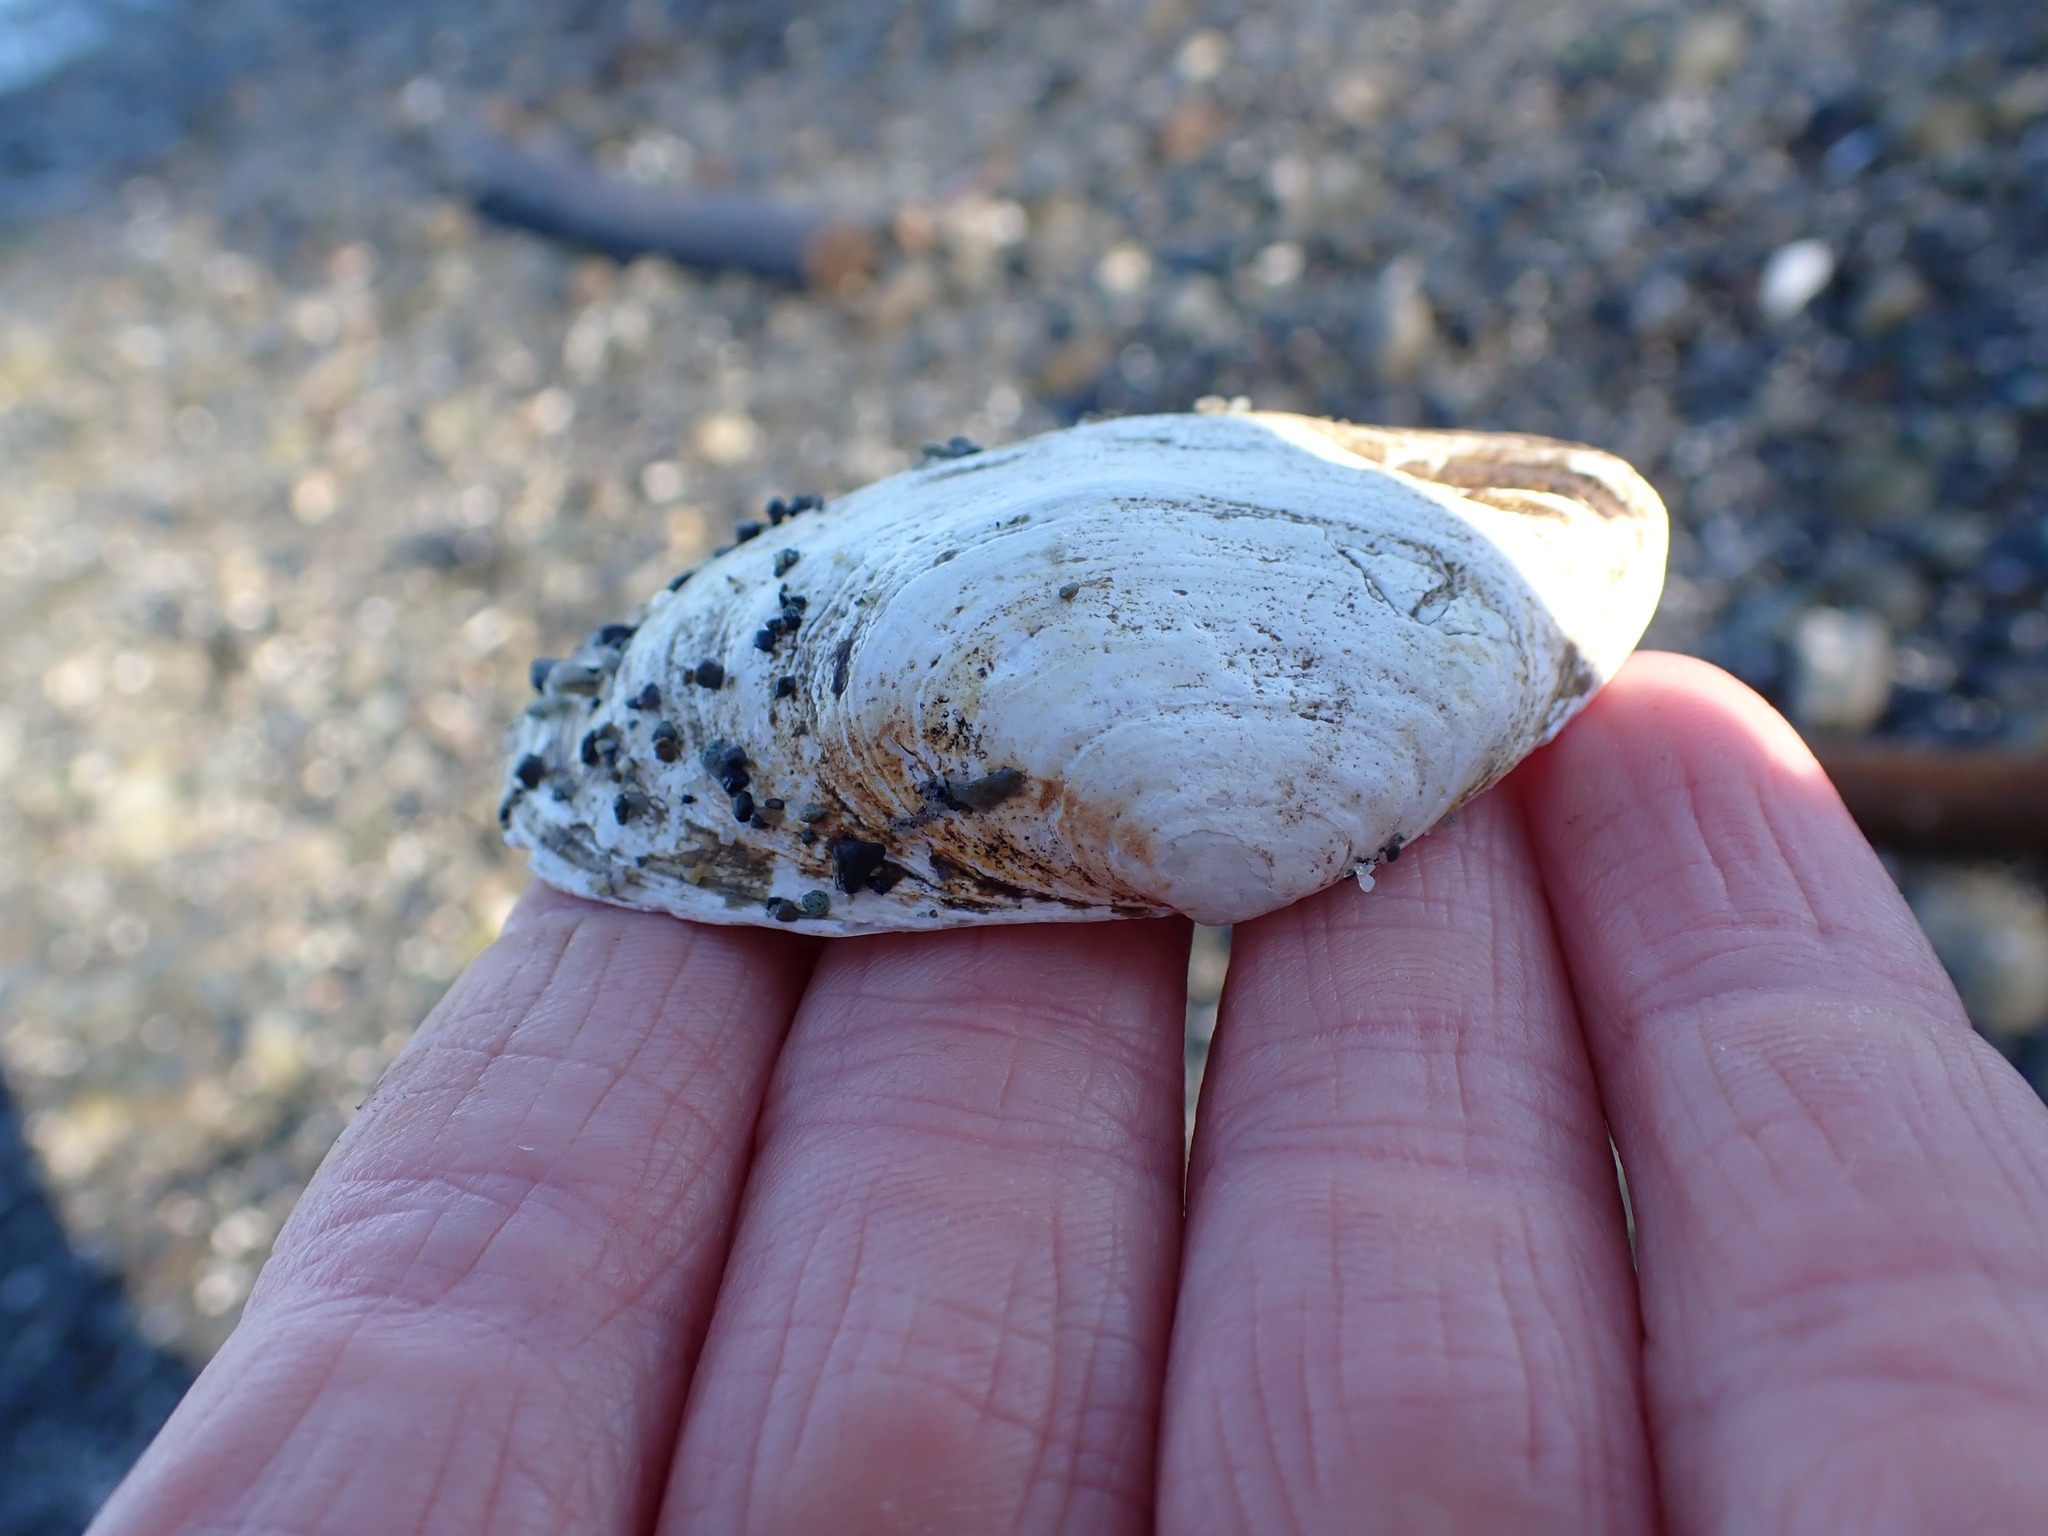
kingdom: Animalia
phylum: Mollusca
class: Bivalvia
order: Myida
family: Myidae
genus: Mya
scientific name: Mya arenaria
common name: Soft-shelled clam
